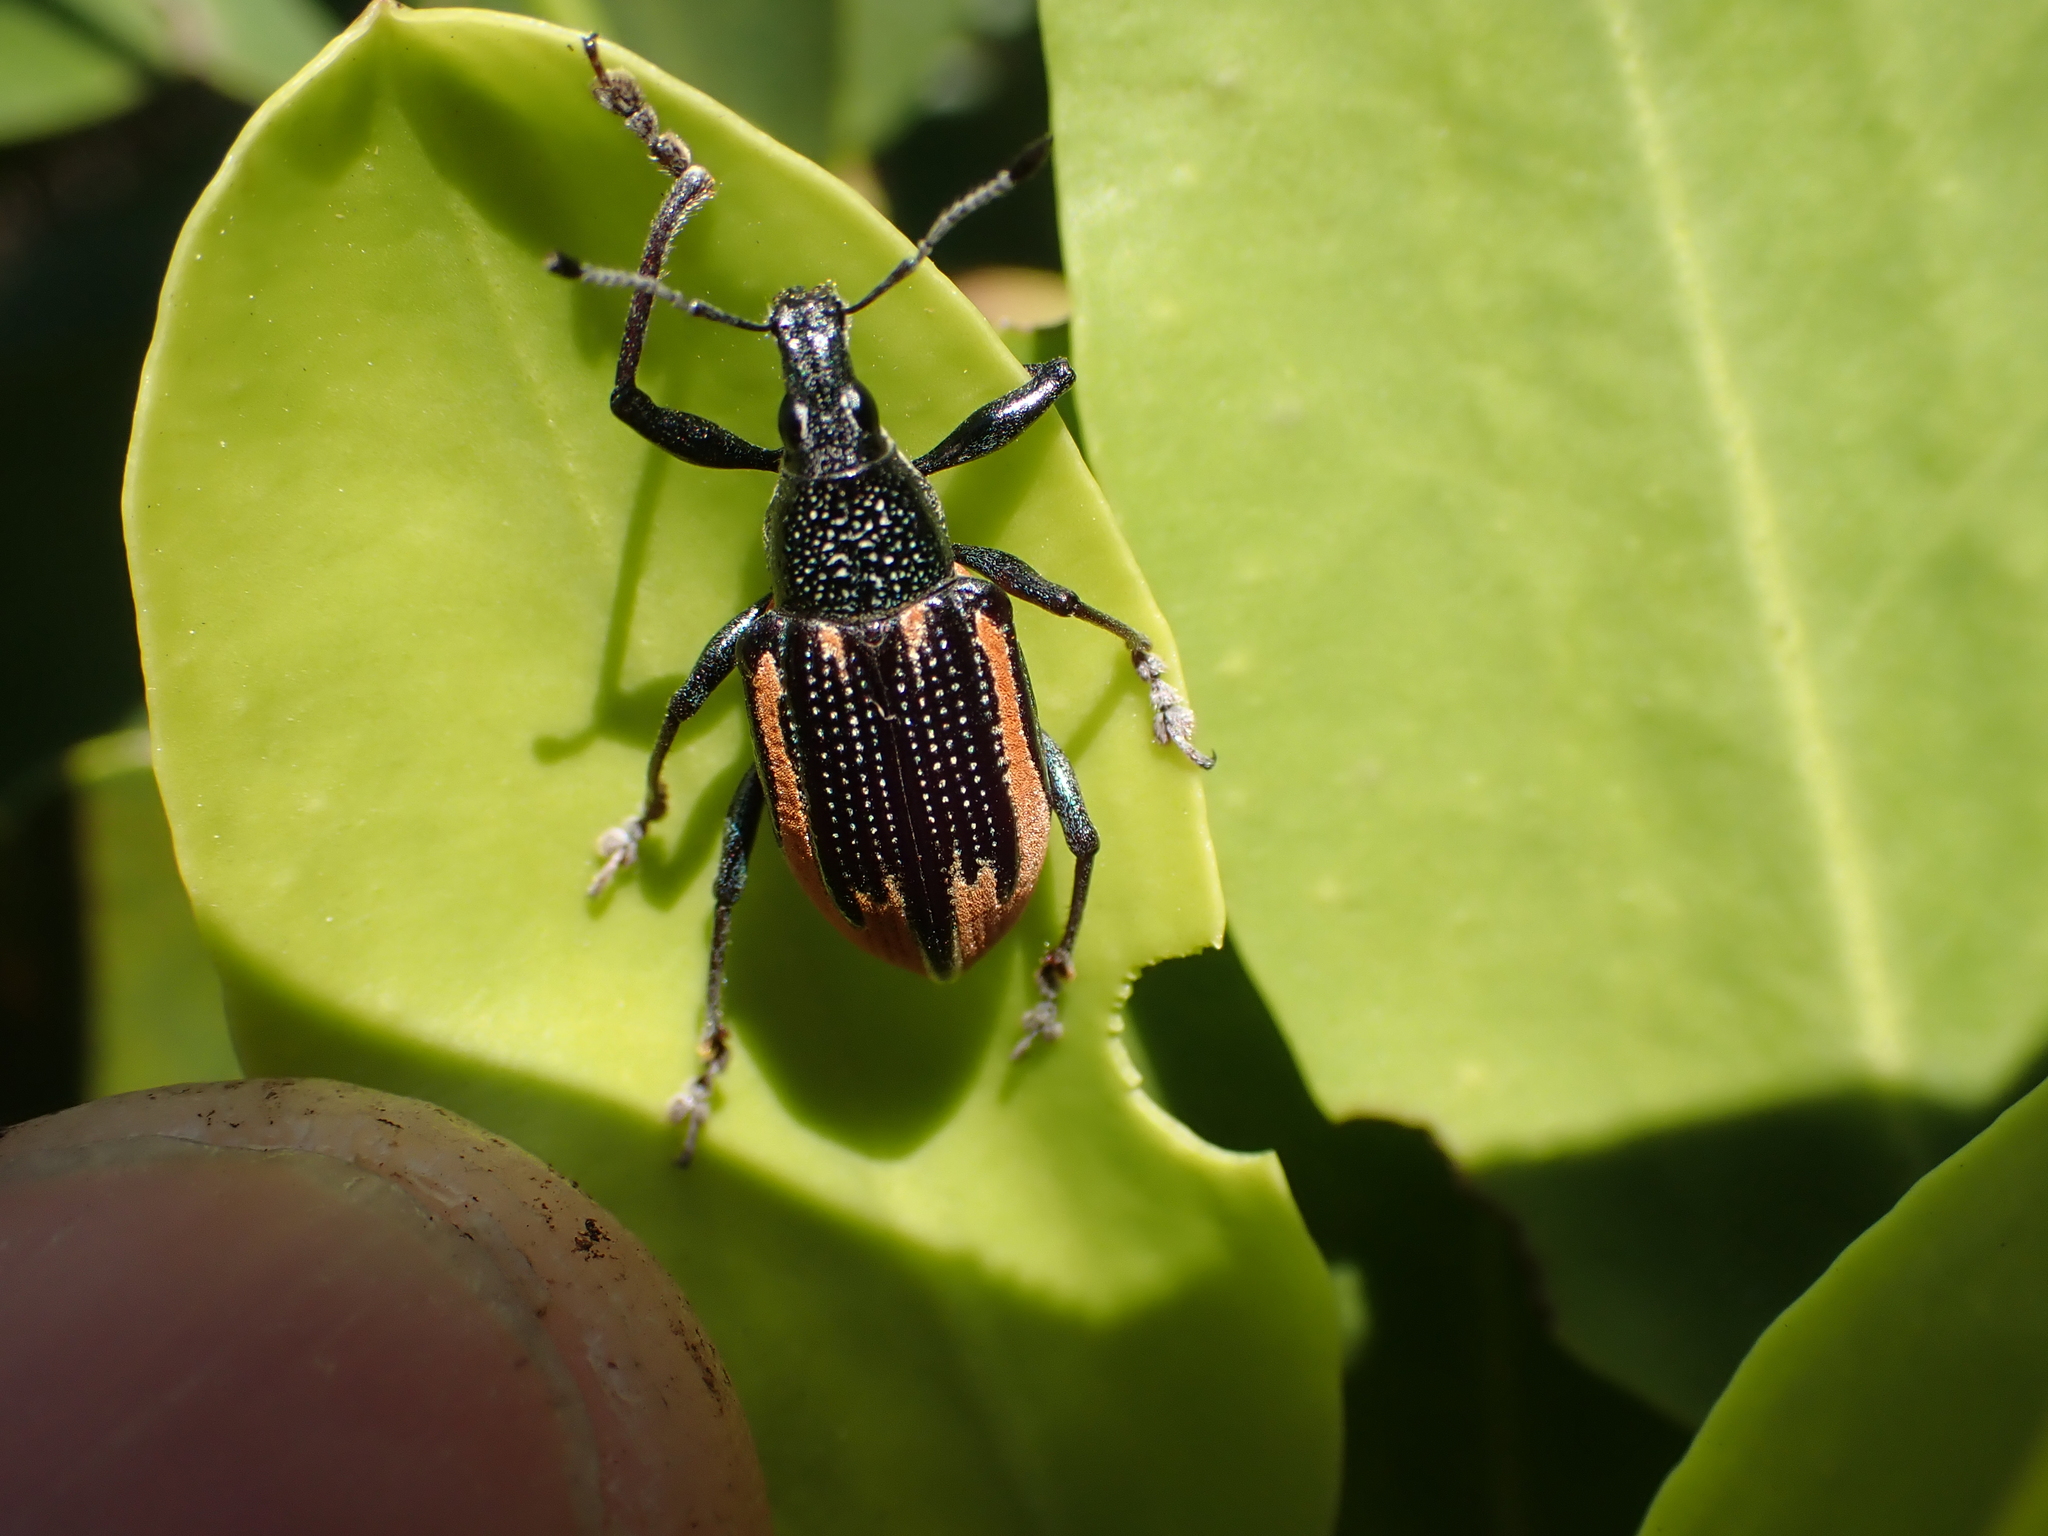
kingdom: Animalia
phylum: Arthropoda
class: Insecta
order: Coleoptera
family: Curculionidae
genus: Diaprepes
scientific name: Diaprepes abbreviatus
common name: Root weevil
